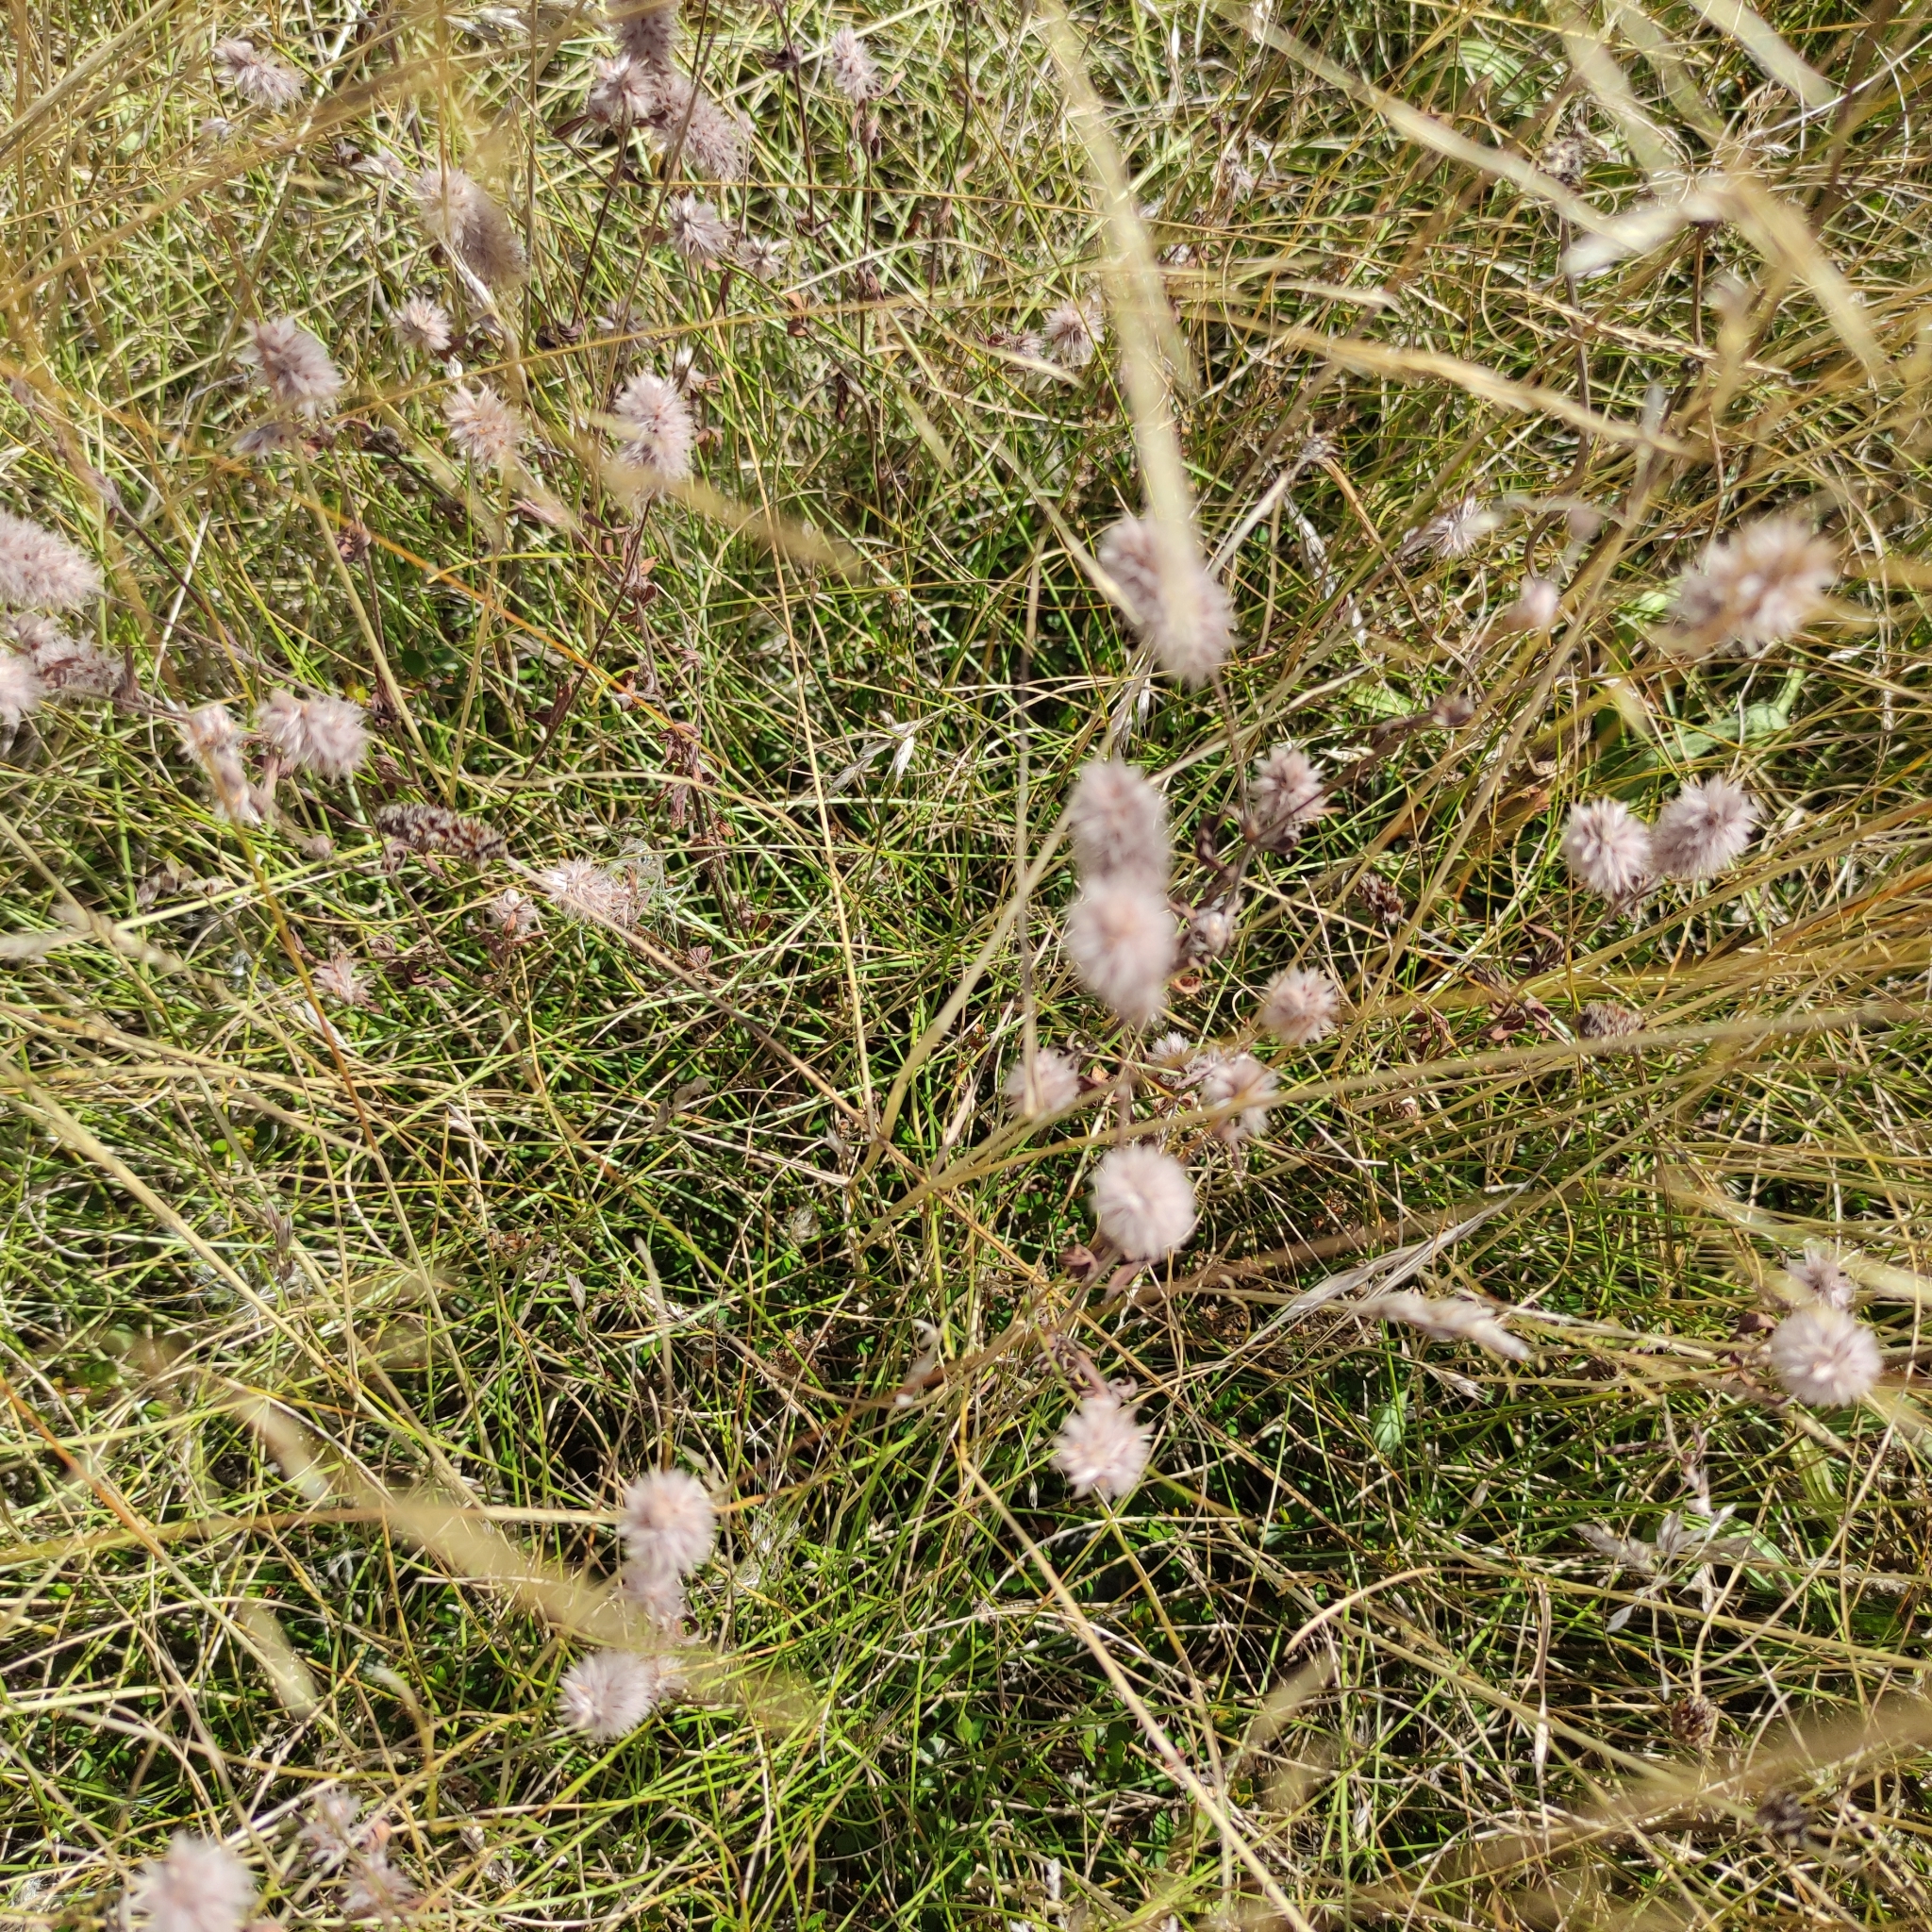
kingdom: Plantae
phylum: Tracheophyta
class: Magnoliopsida
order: Fabales
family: Fabaceae
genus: Trifolium
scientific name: Trifolium arvense
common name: Hare's-foot clover
